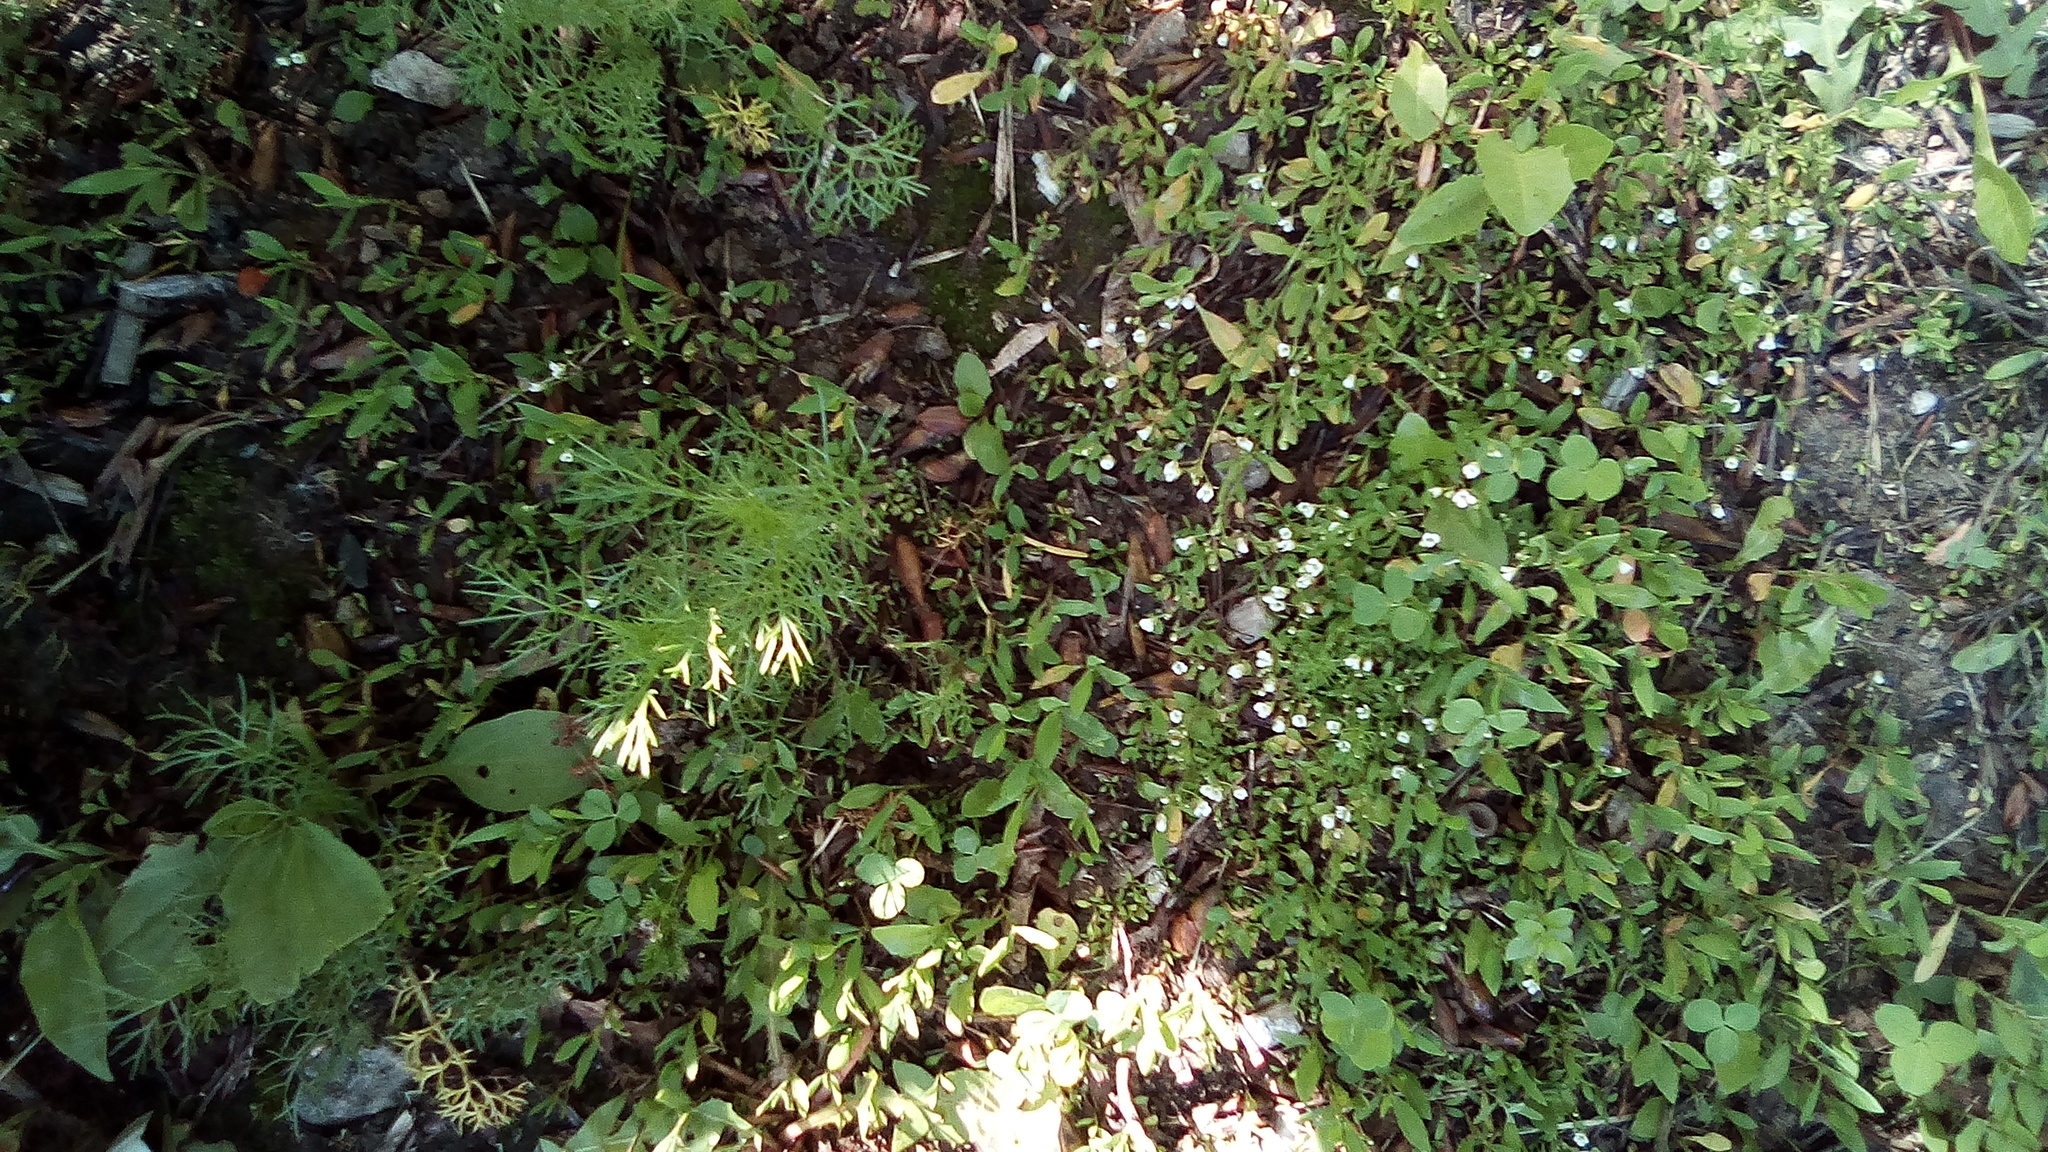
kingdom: Plantae
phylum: Tracheophyta
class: Magnoliopsida
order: Brassicales
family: Brassicaceae
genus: Capsella
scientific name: Capsella bursa-pastoris
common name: Shepherd's purse
